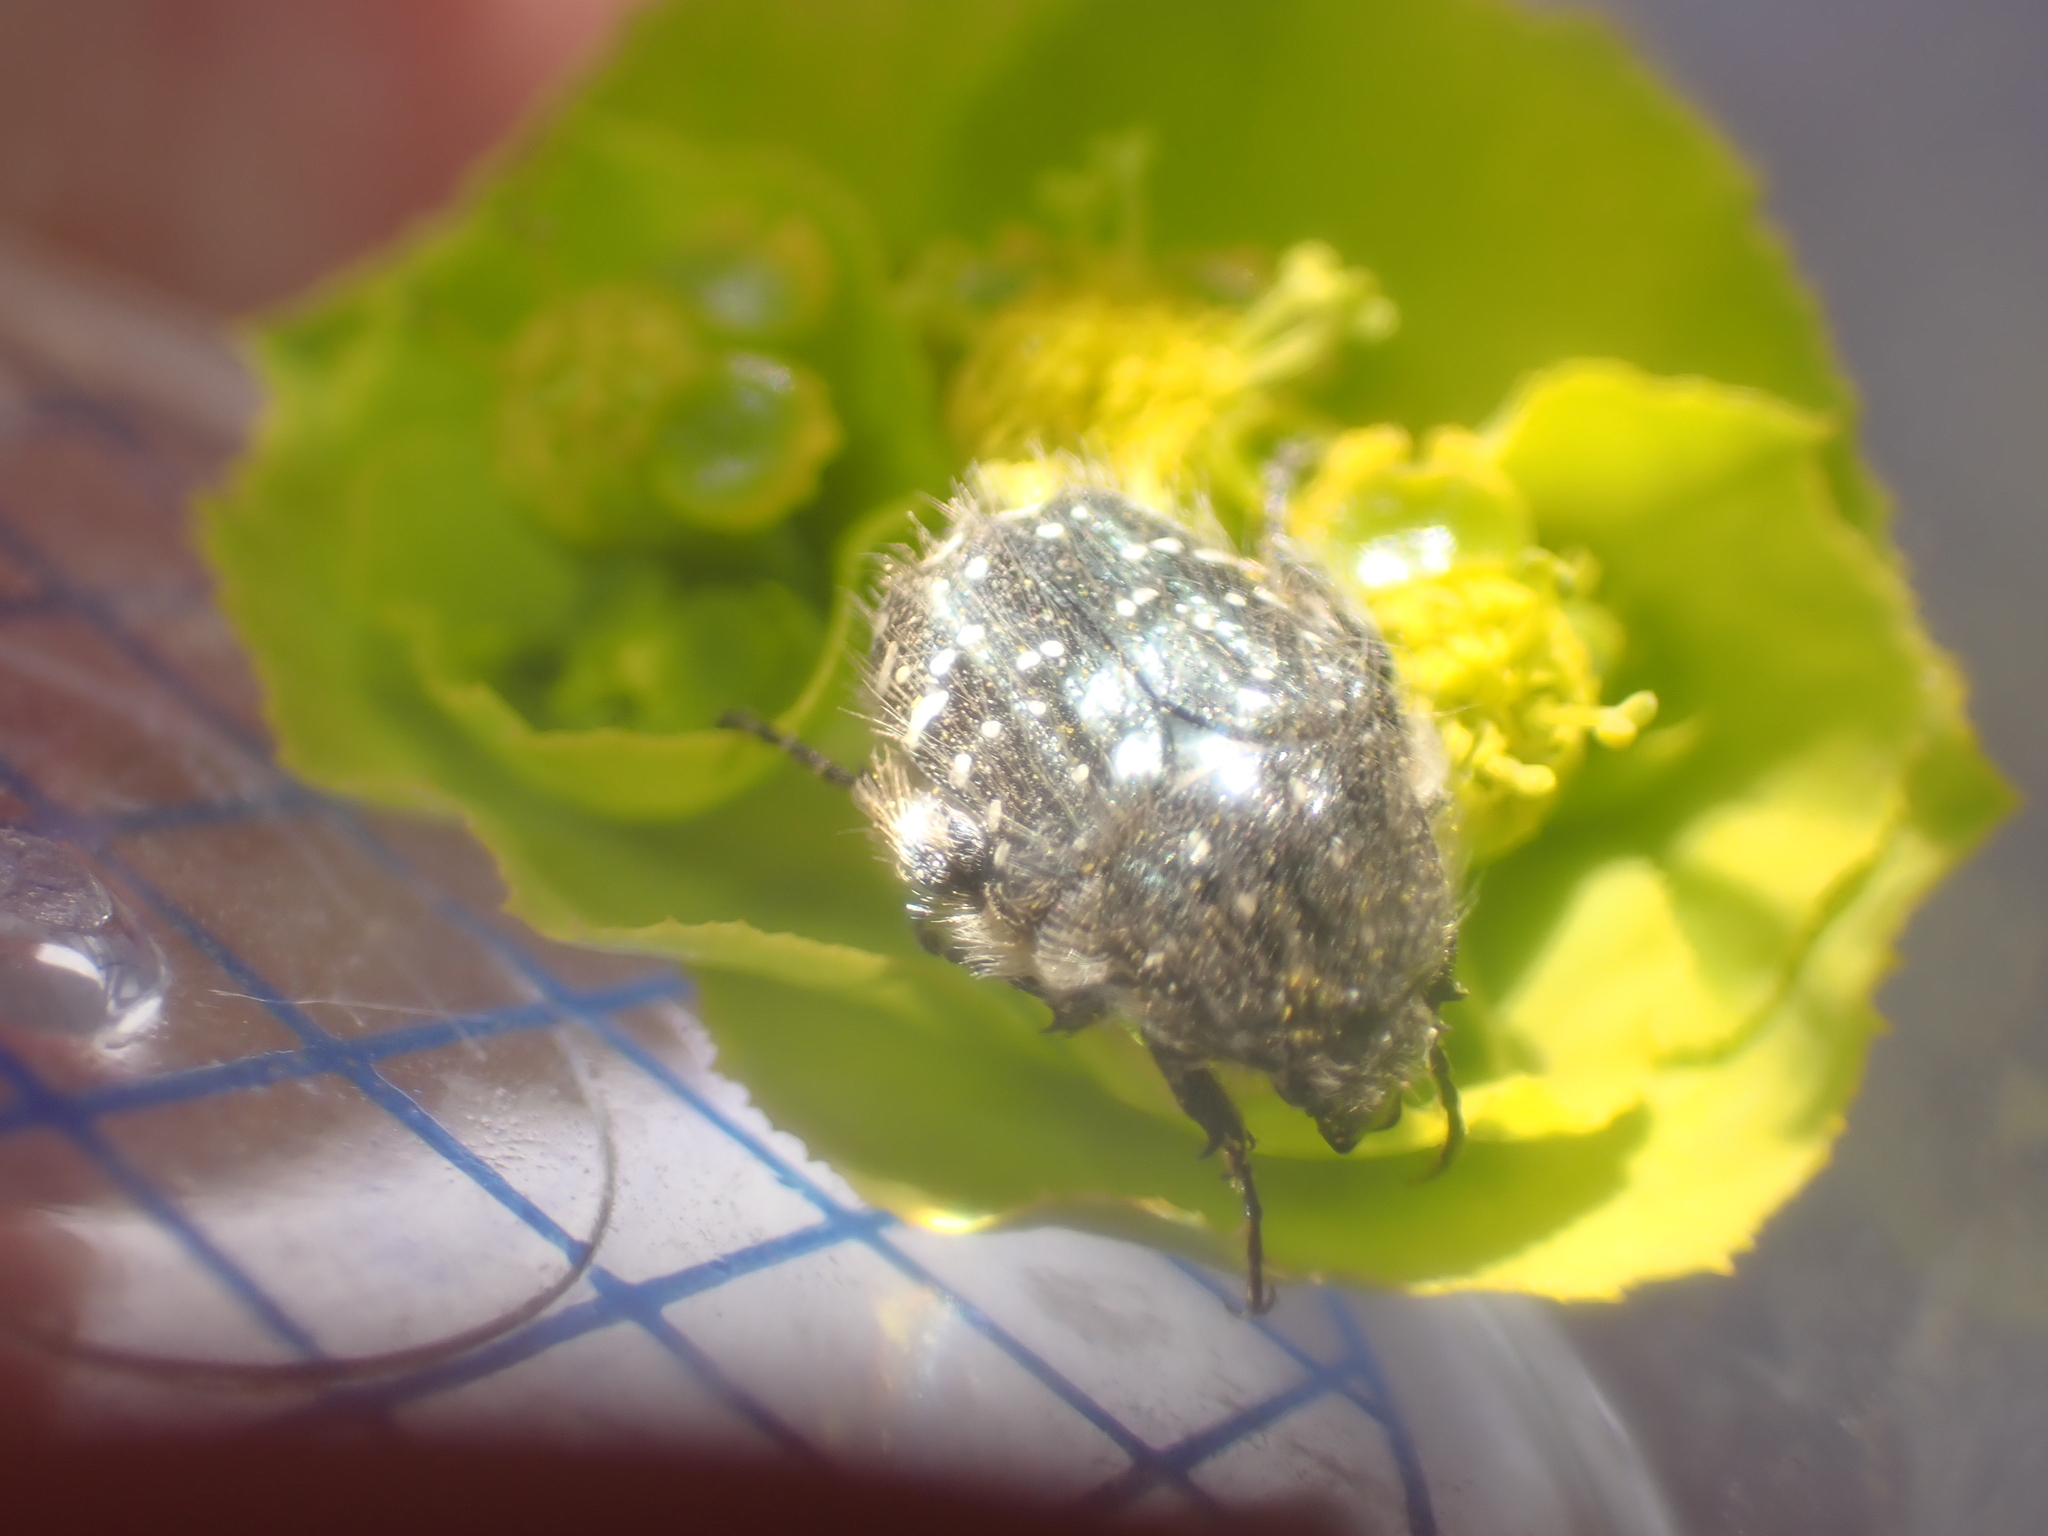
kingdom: Animalia
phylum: Arthropoda
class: Insecta
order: Coleoptera
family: Scarabaeidae
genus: Oxythyrea
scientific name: Oxythyrea funesta
